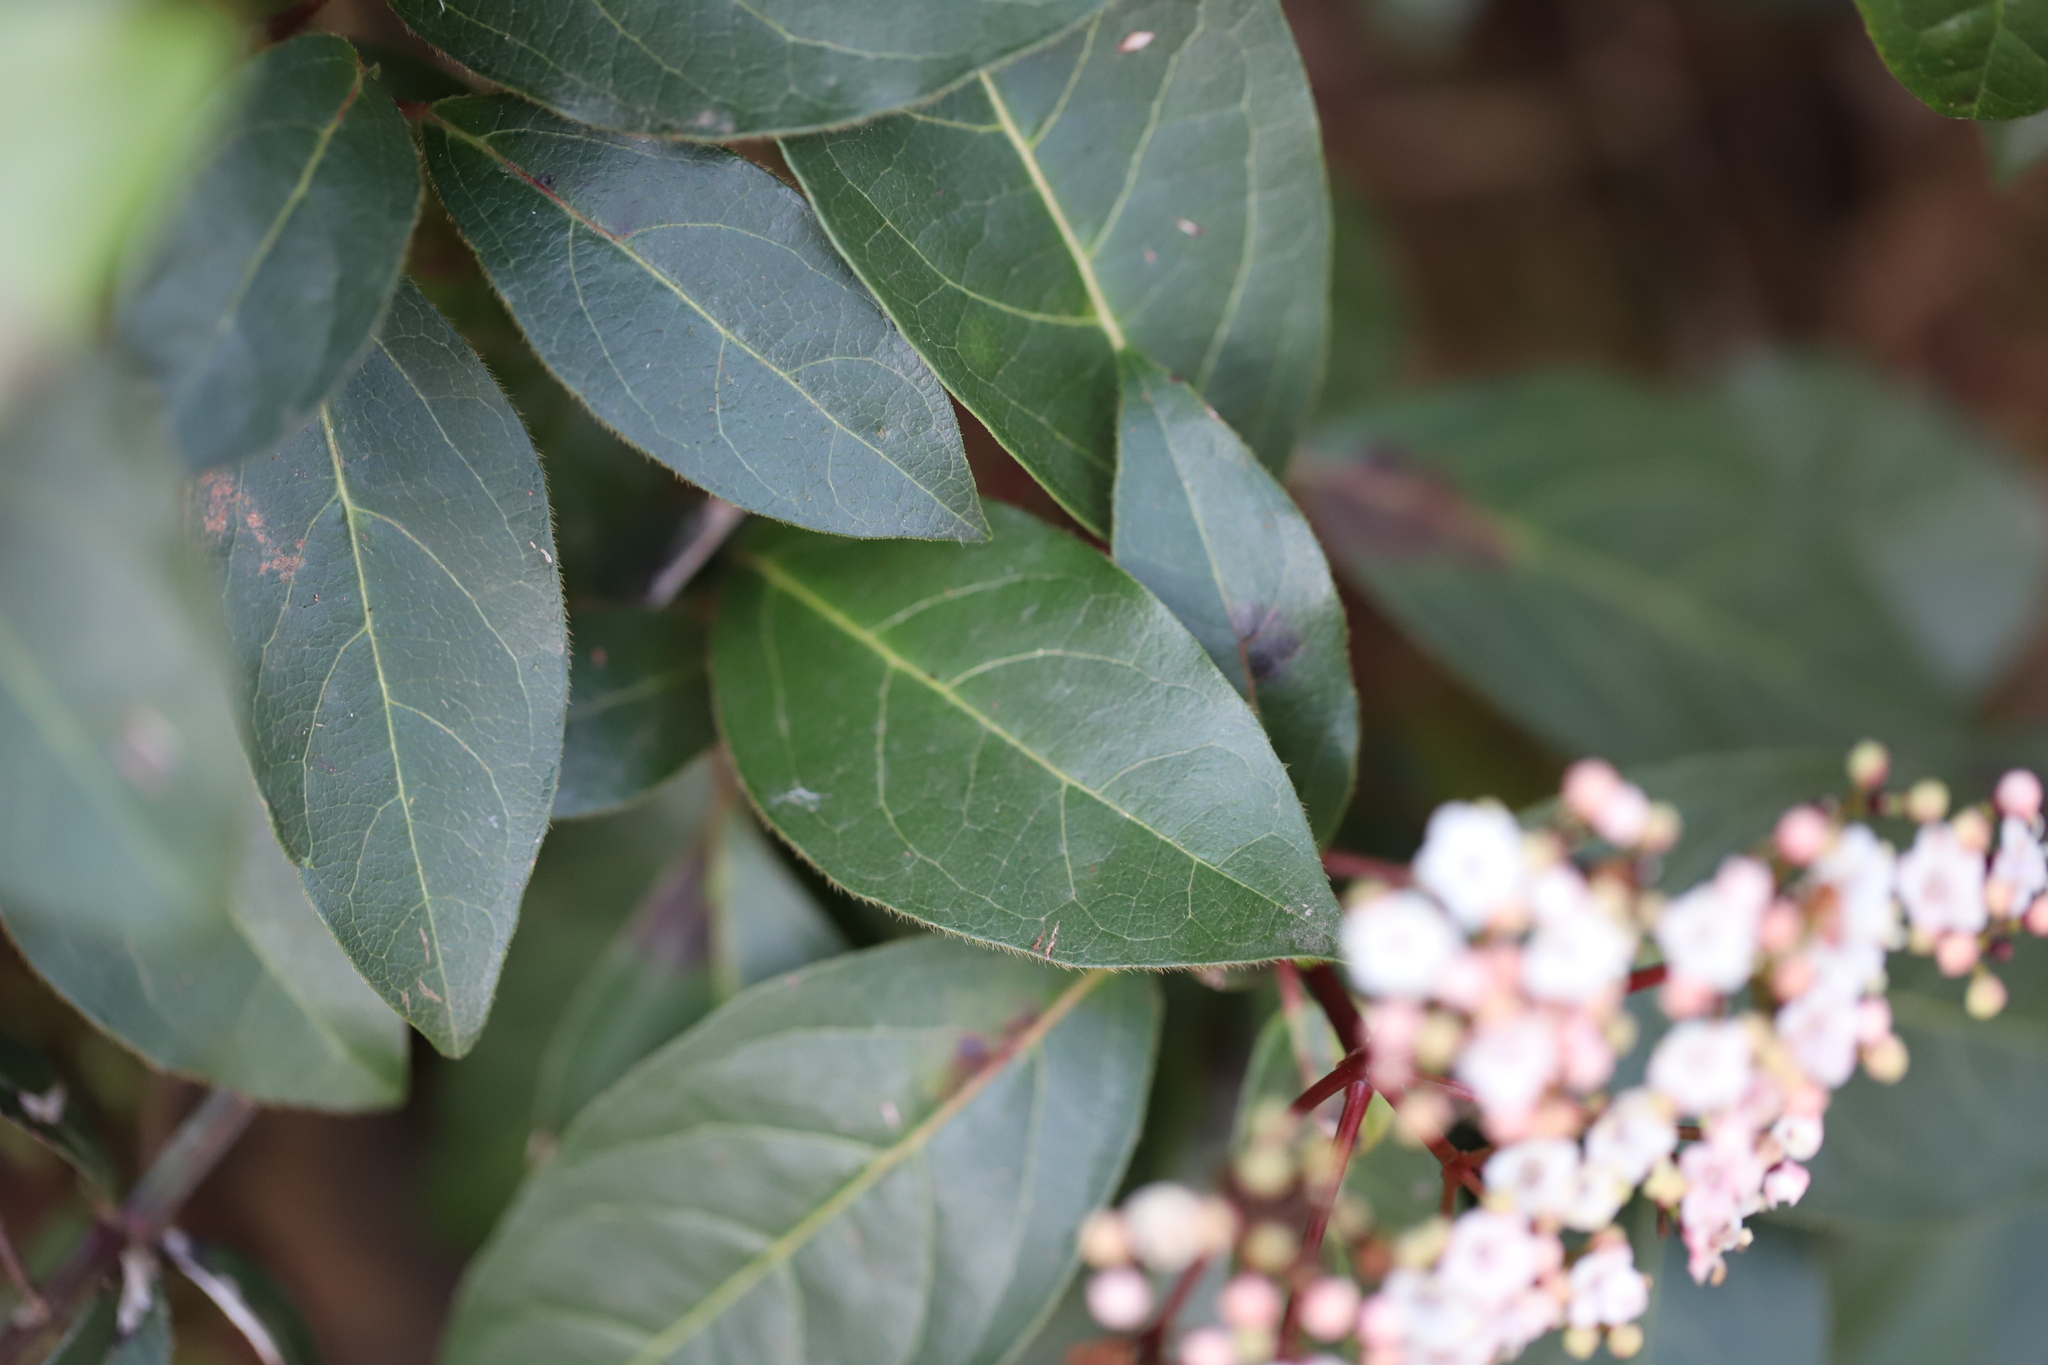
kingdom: Plantae
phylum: Tracheophyta
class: Magnoliopsida
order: Dipsacales
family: Viburnaceae
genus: Viburnum
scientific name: Viburnum tinus
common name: Laurustinus
